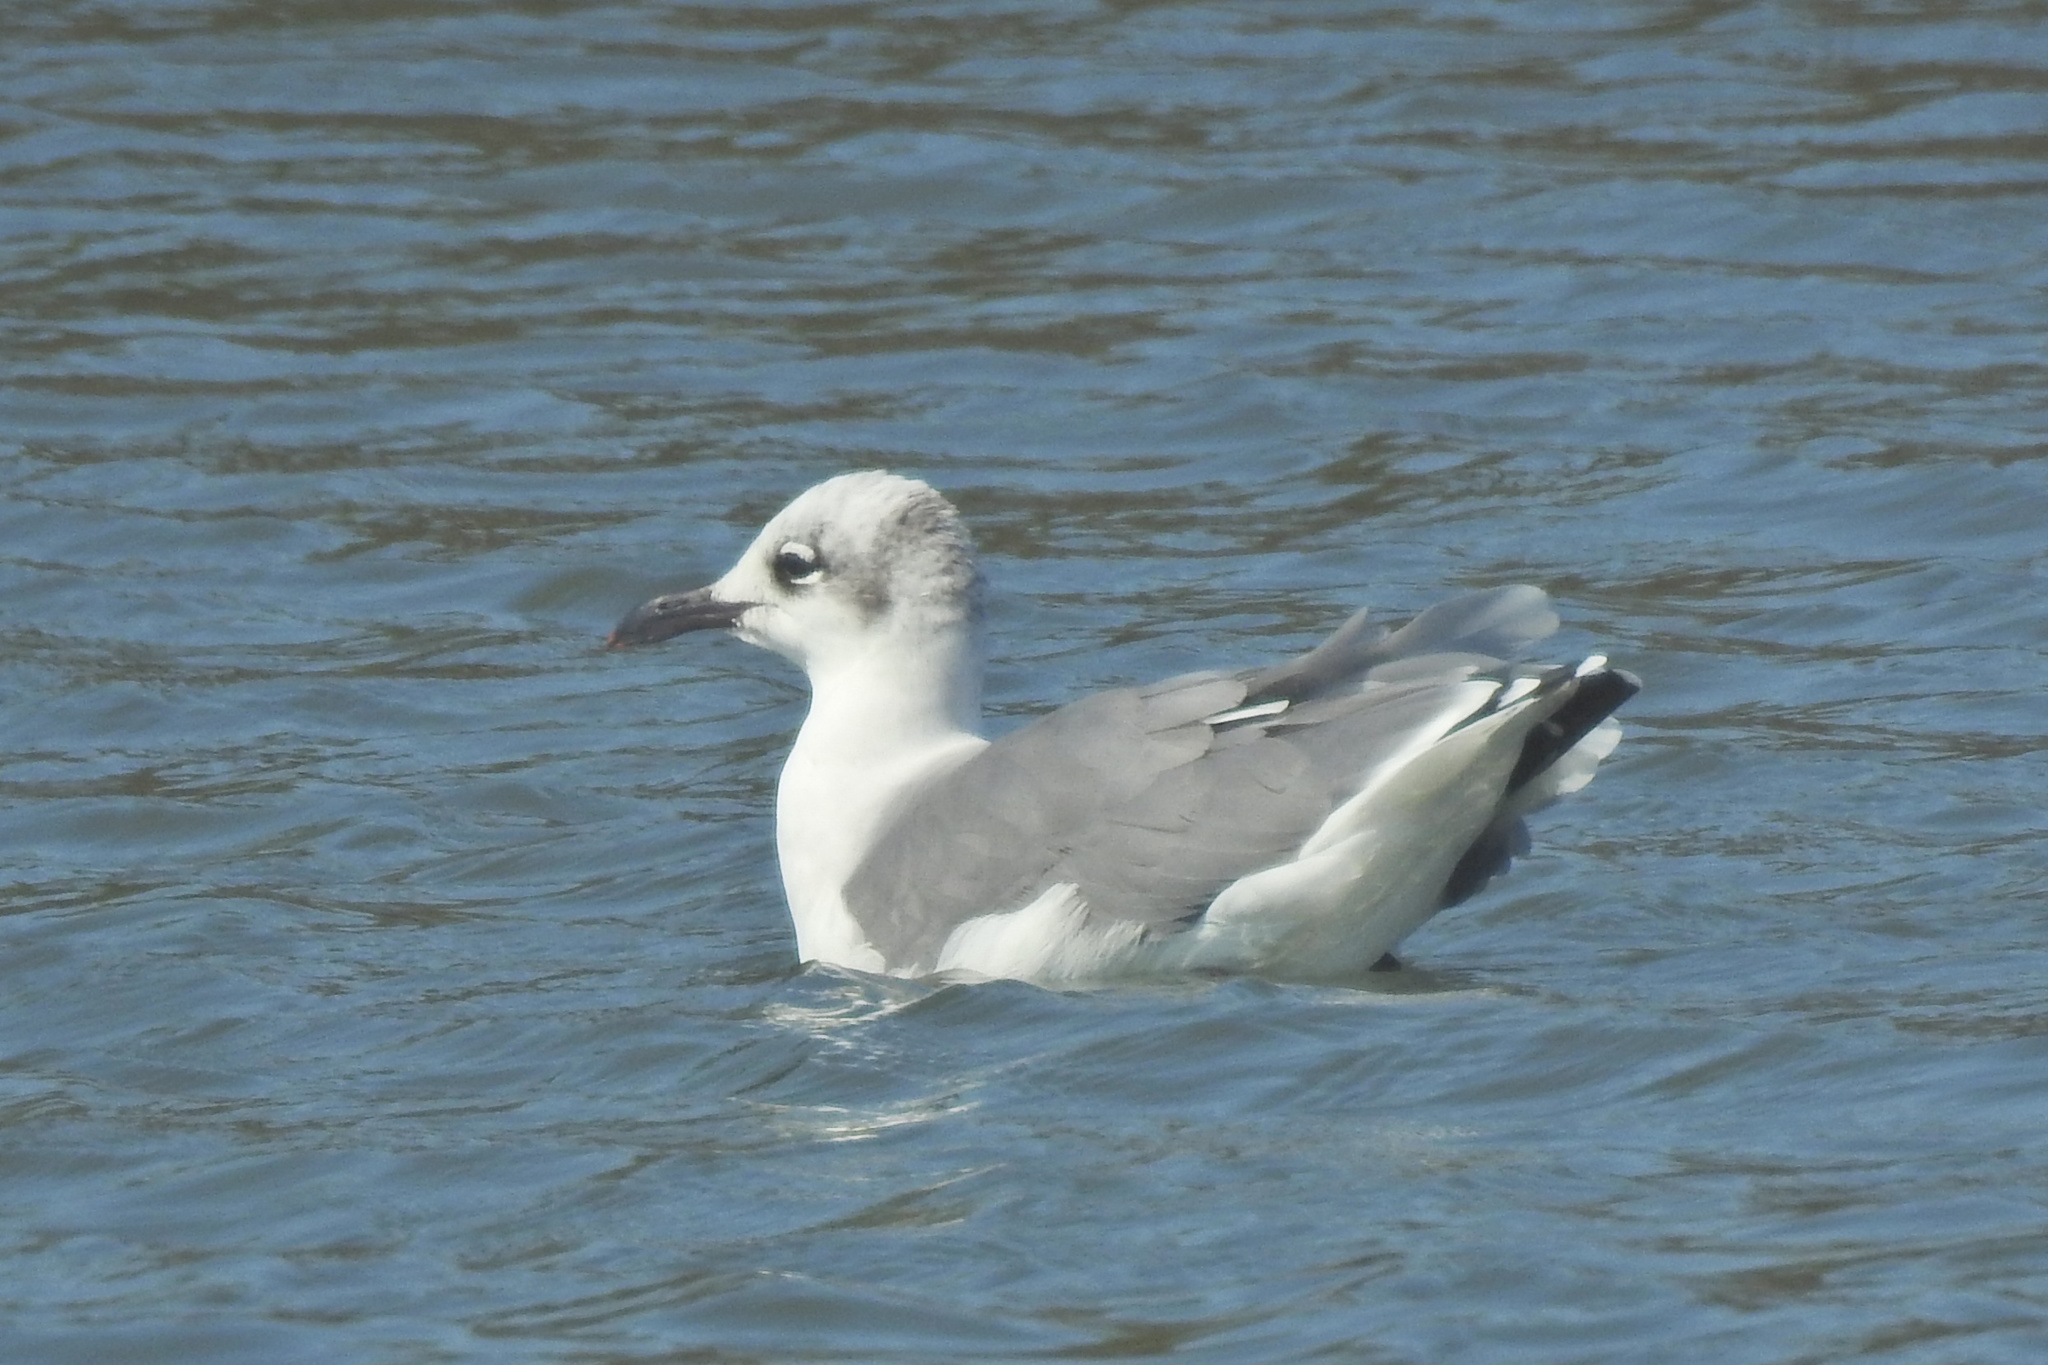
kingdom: Animalia
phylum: Chordata
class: Aves
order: Charadriiformes
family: Laridae
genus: Leucophaeus
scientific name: Leucophaeus atricilla
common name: Laughing gull
